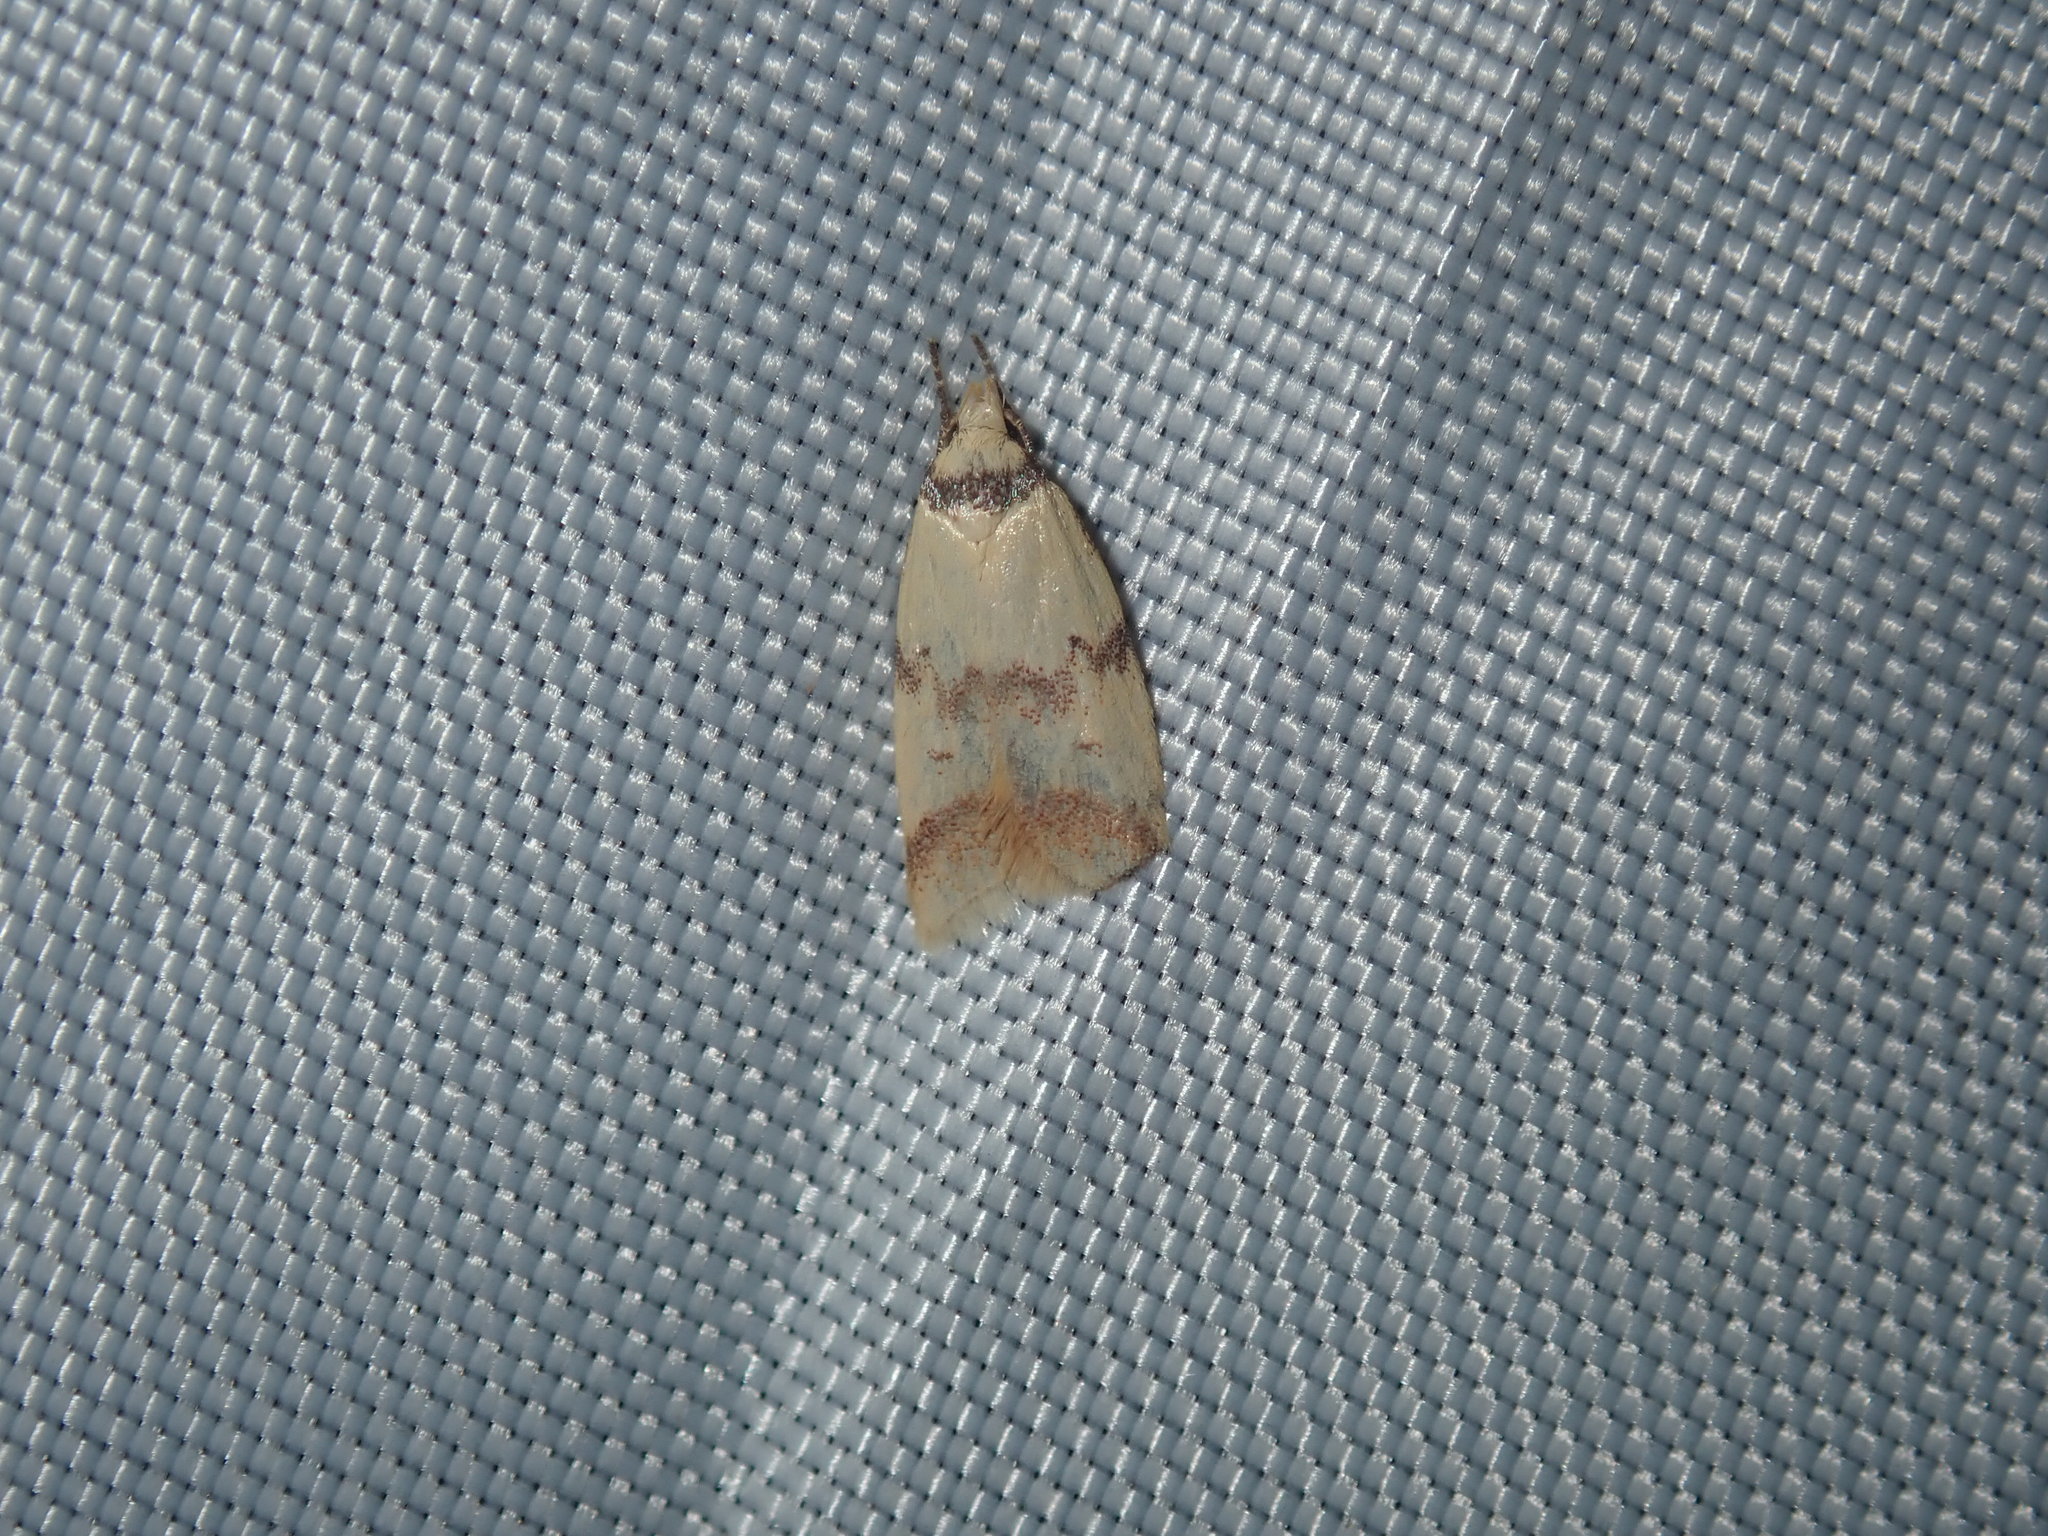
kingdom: Animalia
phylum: Arthropoda
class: Insecta
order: Lepidoptera
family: Oecophoridae
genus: Heteroteucha
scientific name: Heteroteucha anthodora
